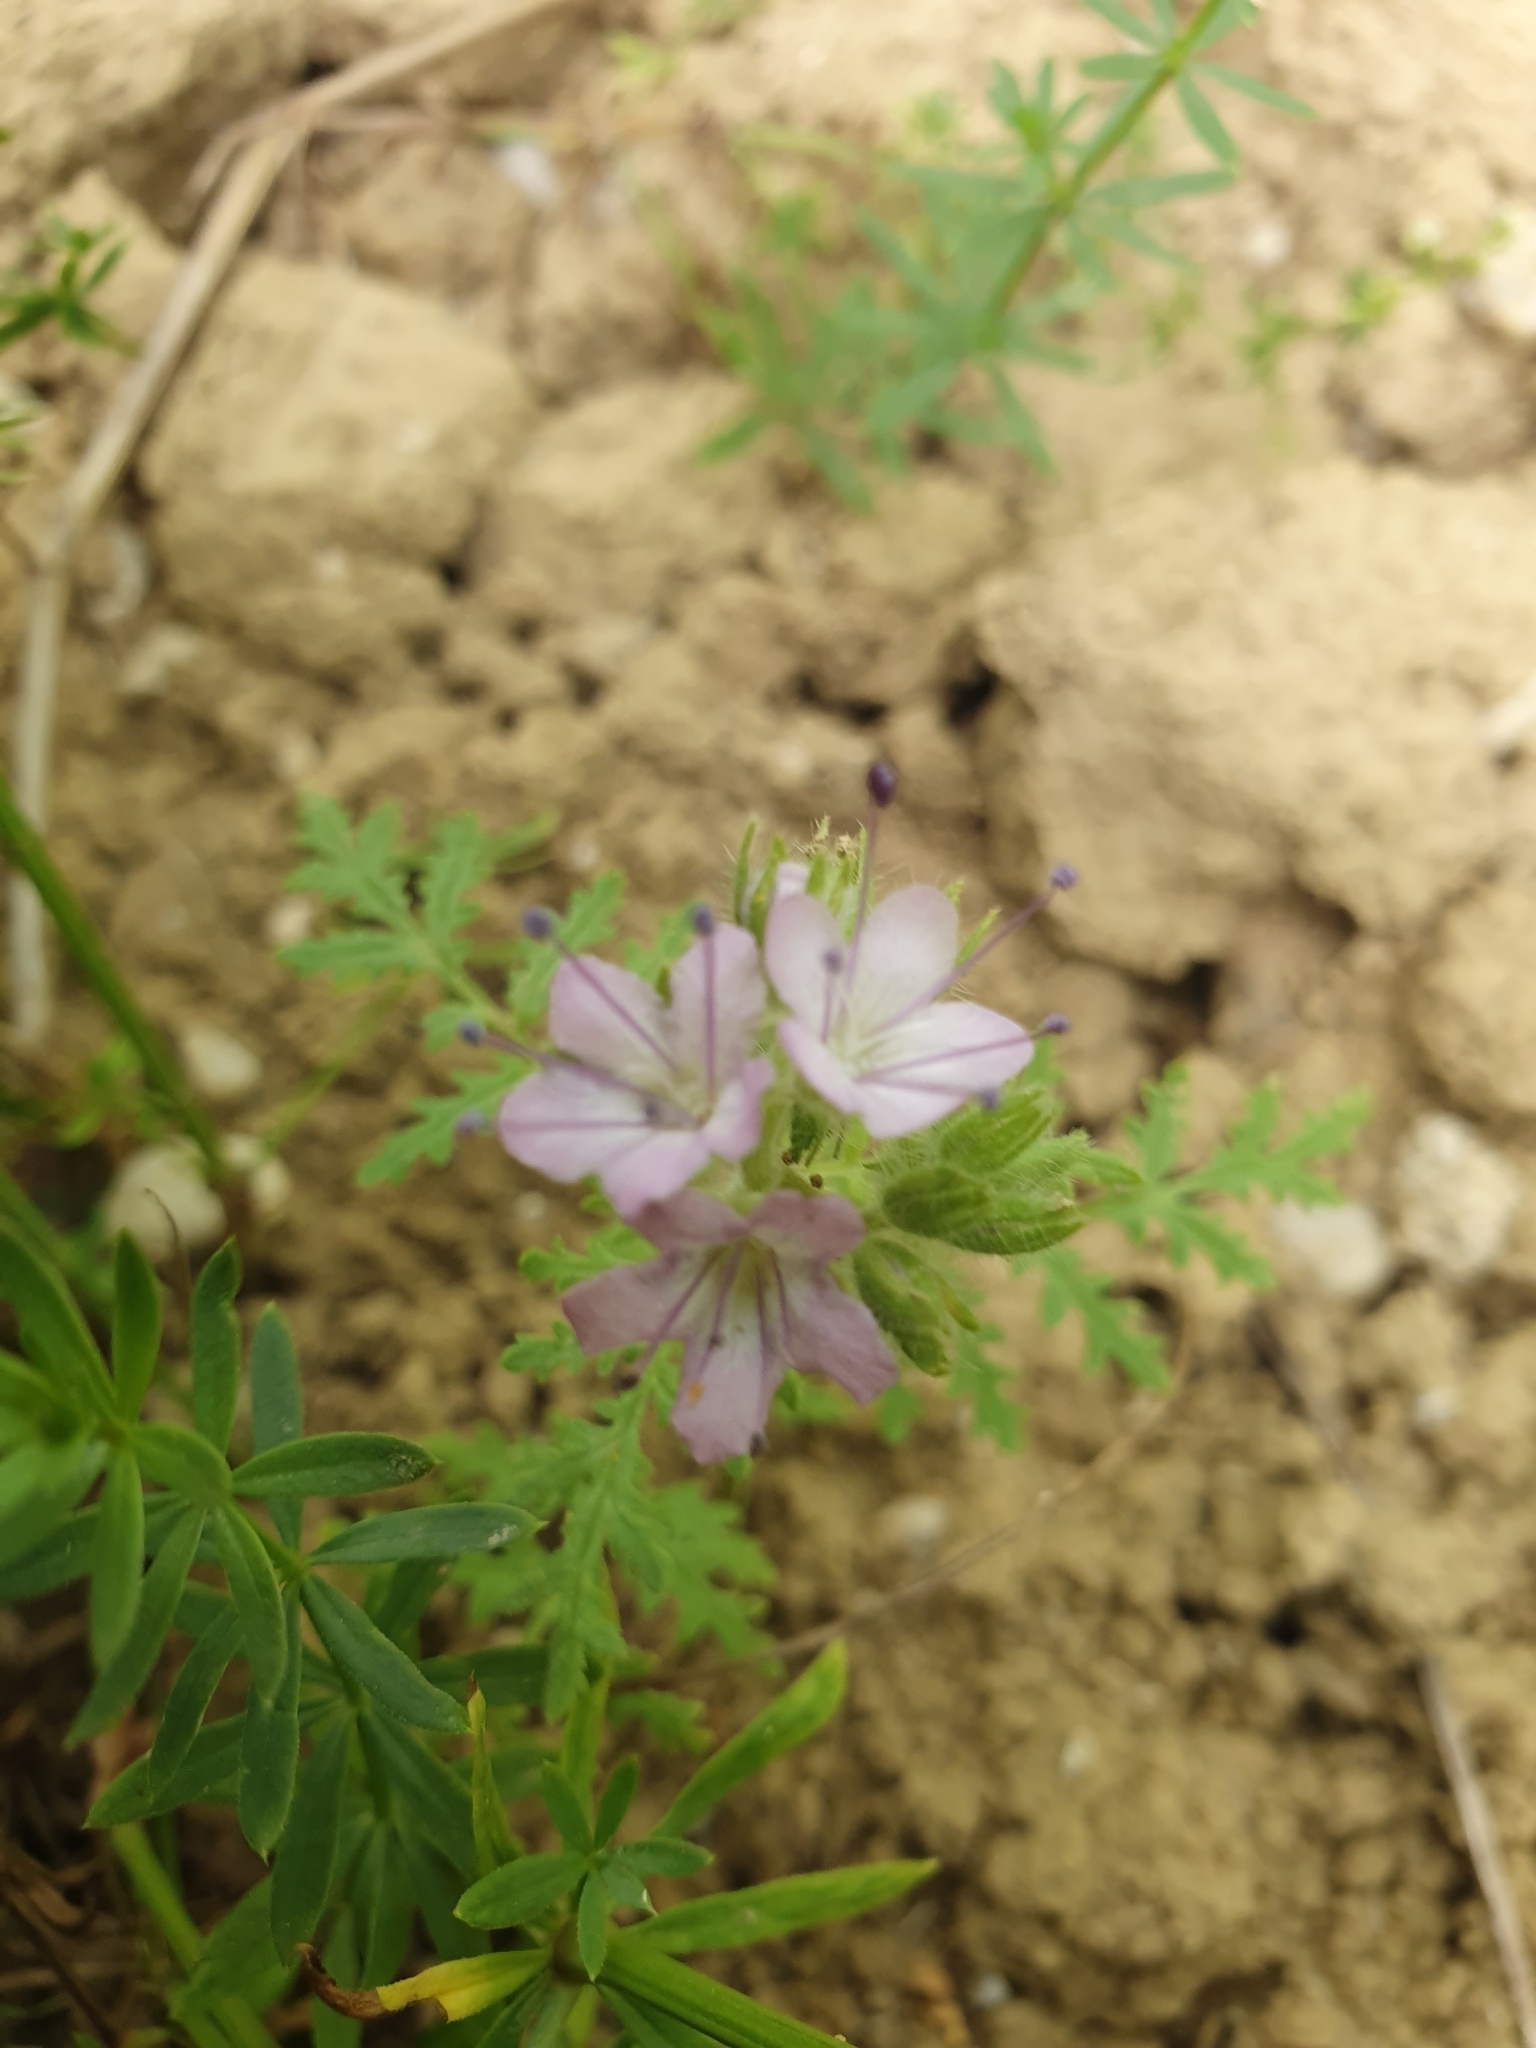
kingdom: Plantae
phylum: Tracheophyta
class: Magnoliopsida
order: Boraginales
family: Hydrophyllaceae
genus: Phacelia
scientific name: Phacelia tanacetifolia
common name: Phacelia
